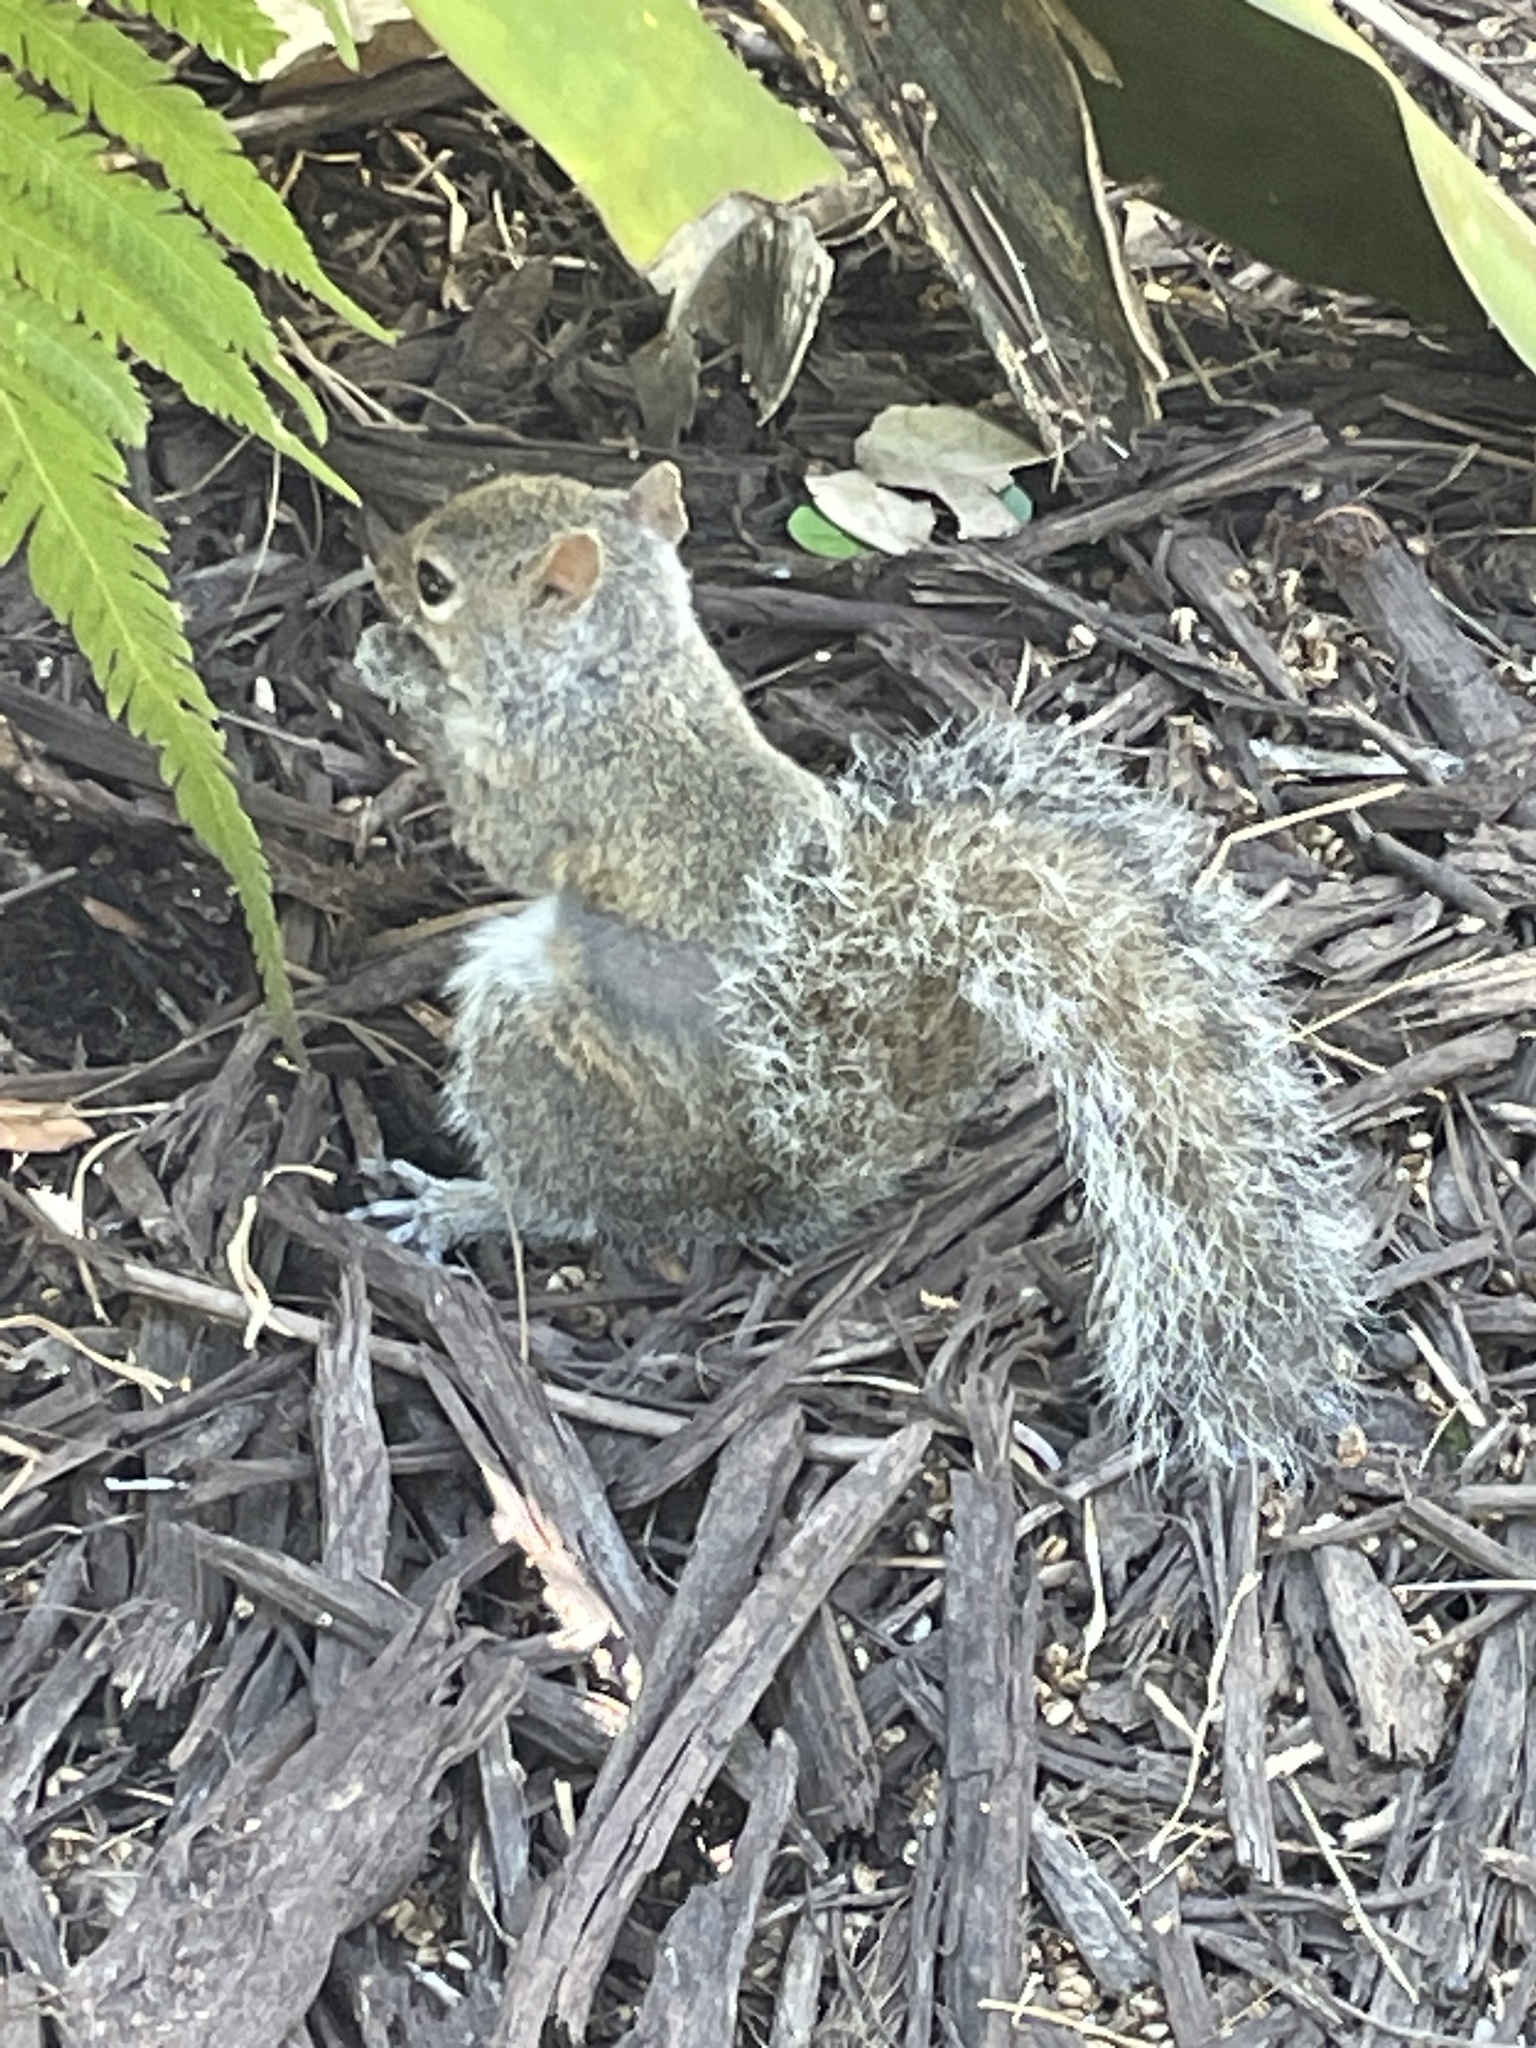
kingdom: Animalia
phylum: Chordata
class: Mammalia
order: Rodentia
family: Sciuridae
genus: Sciurus
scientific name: Sciurus carolinensis
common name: Eastern gray squirrel
